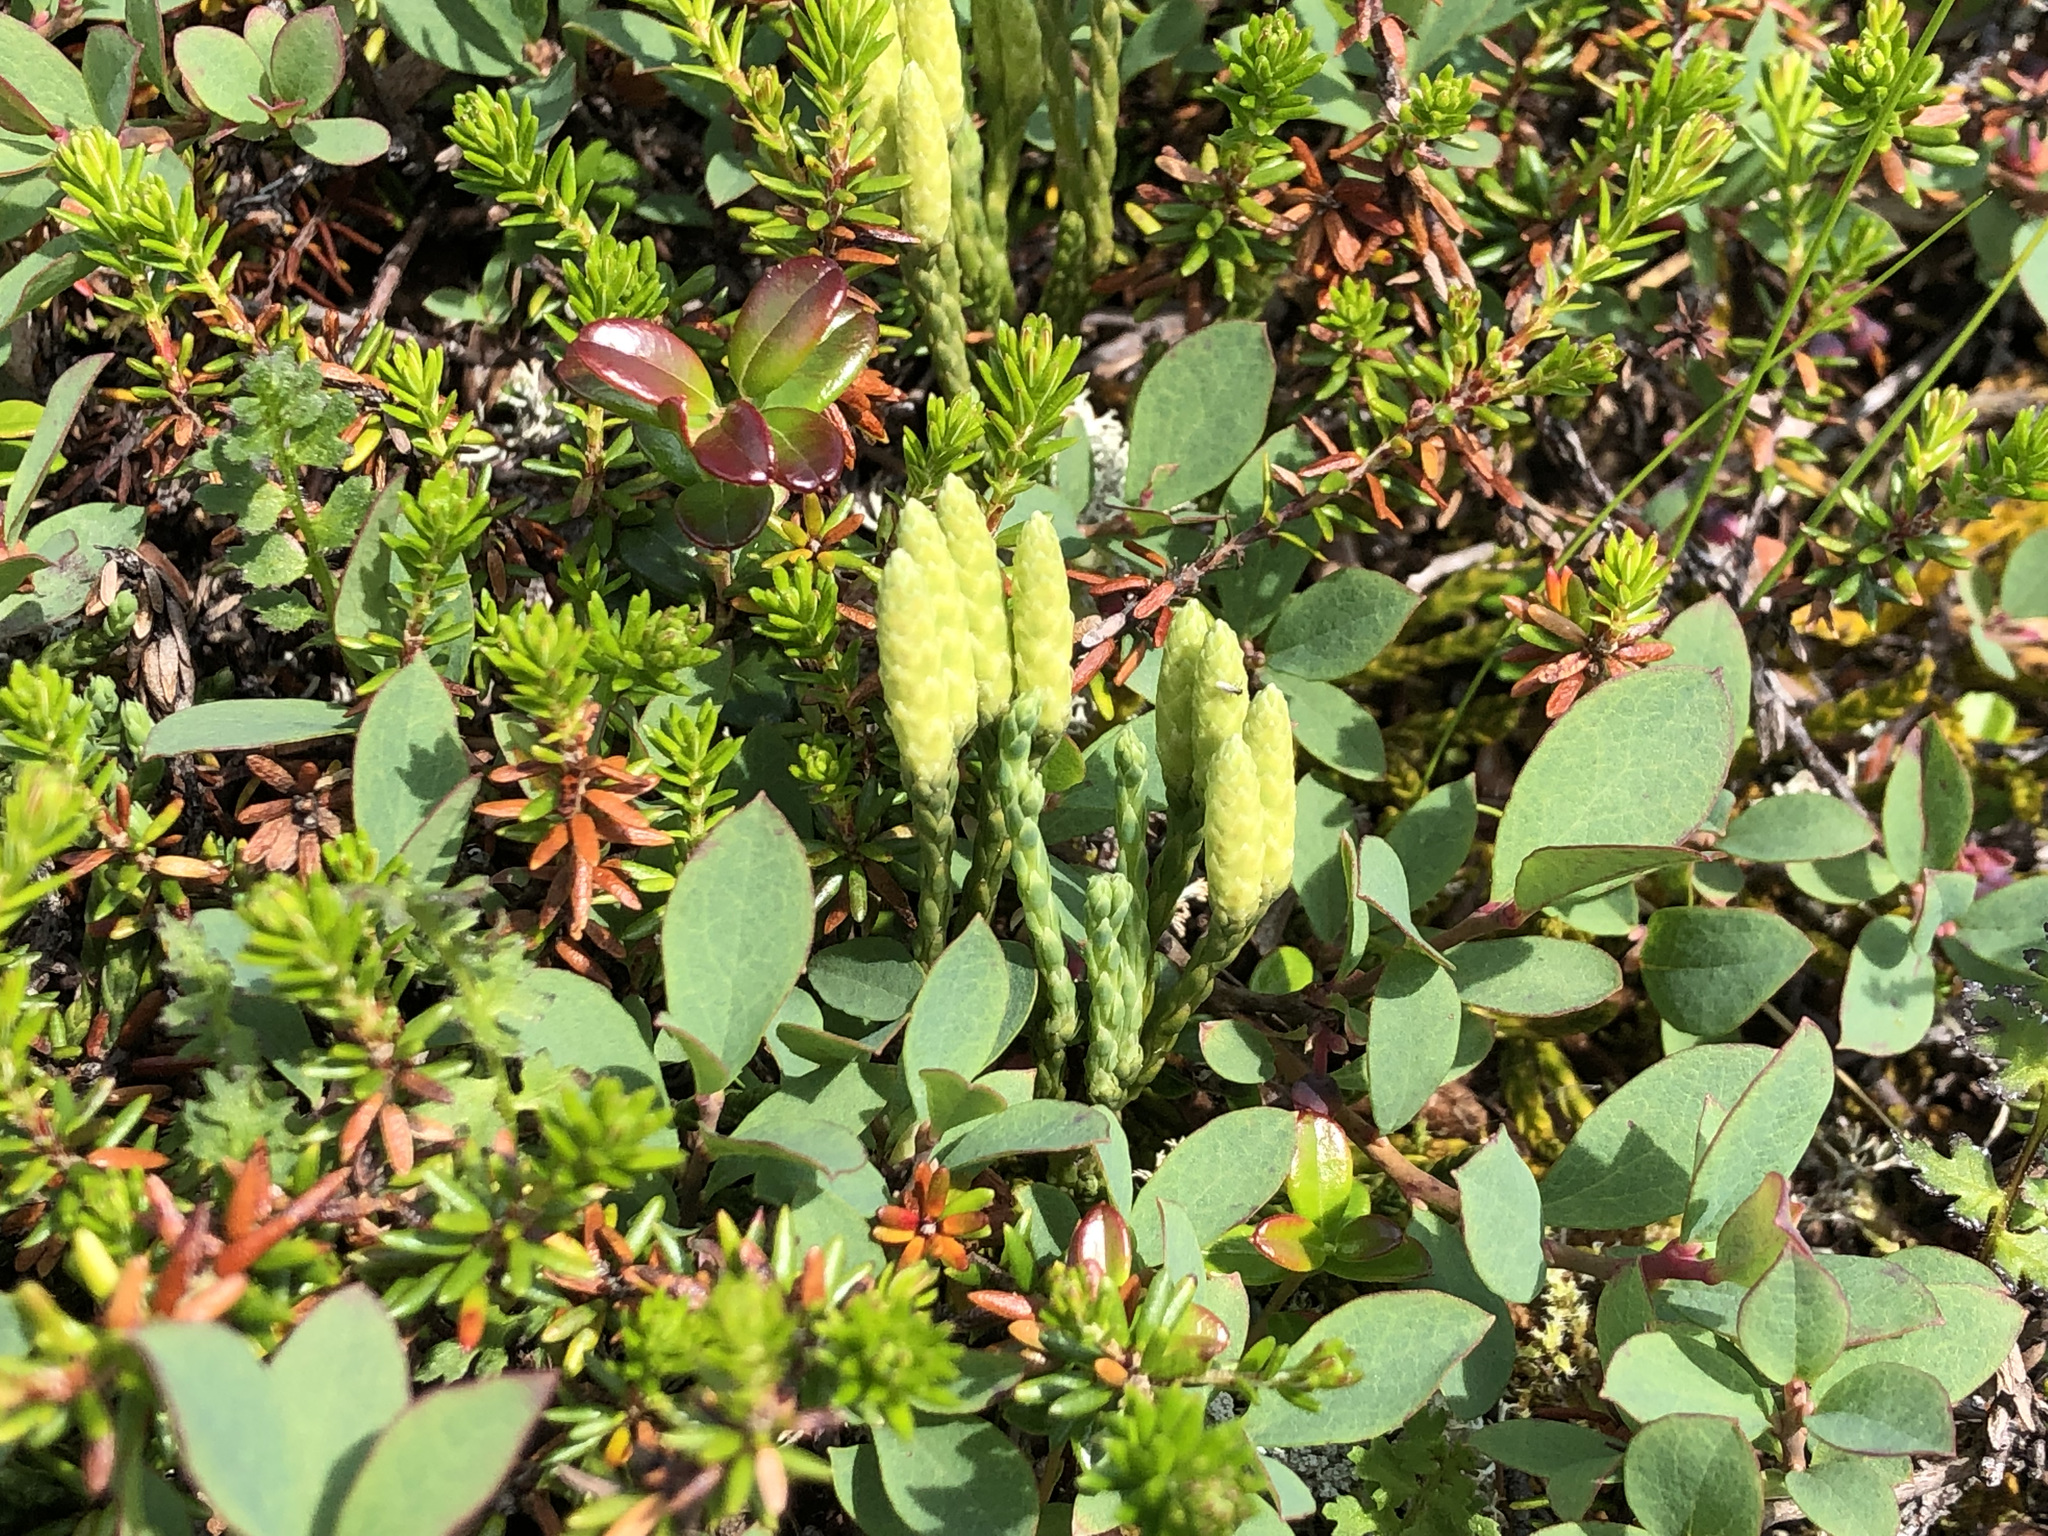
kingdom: Plantae
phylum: Tracheophyta
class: Lycopodiopsida
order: Lycopodiales
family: Lycopodiaceae
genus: Diphasiastrum
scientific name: Diphasiastrum alpinum
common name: Alpine clubmoss
